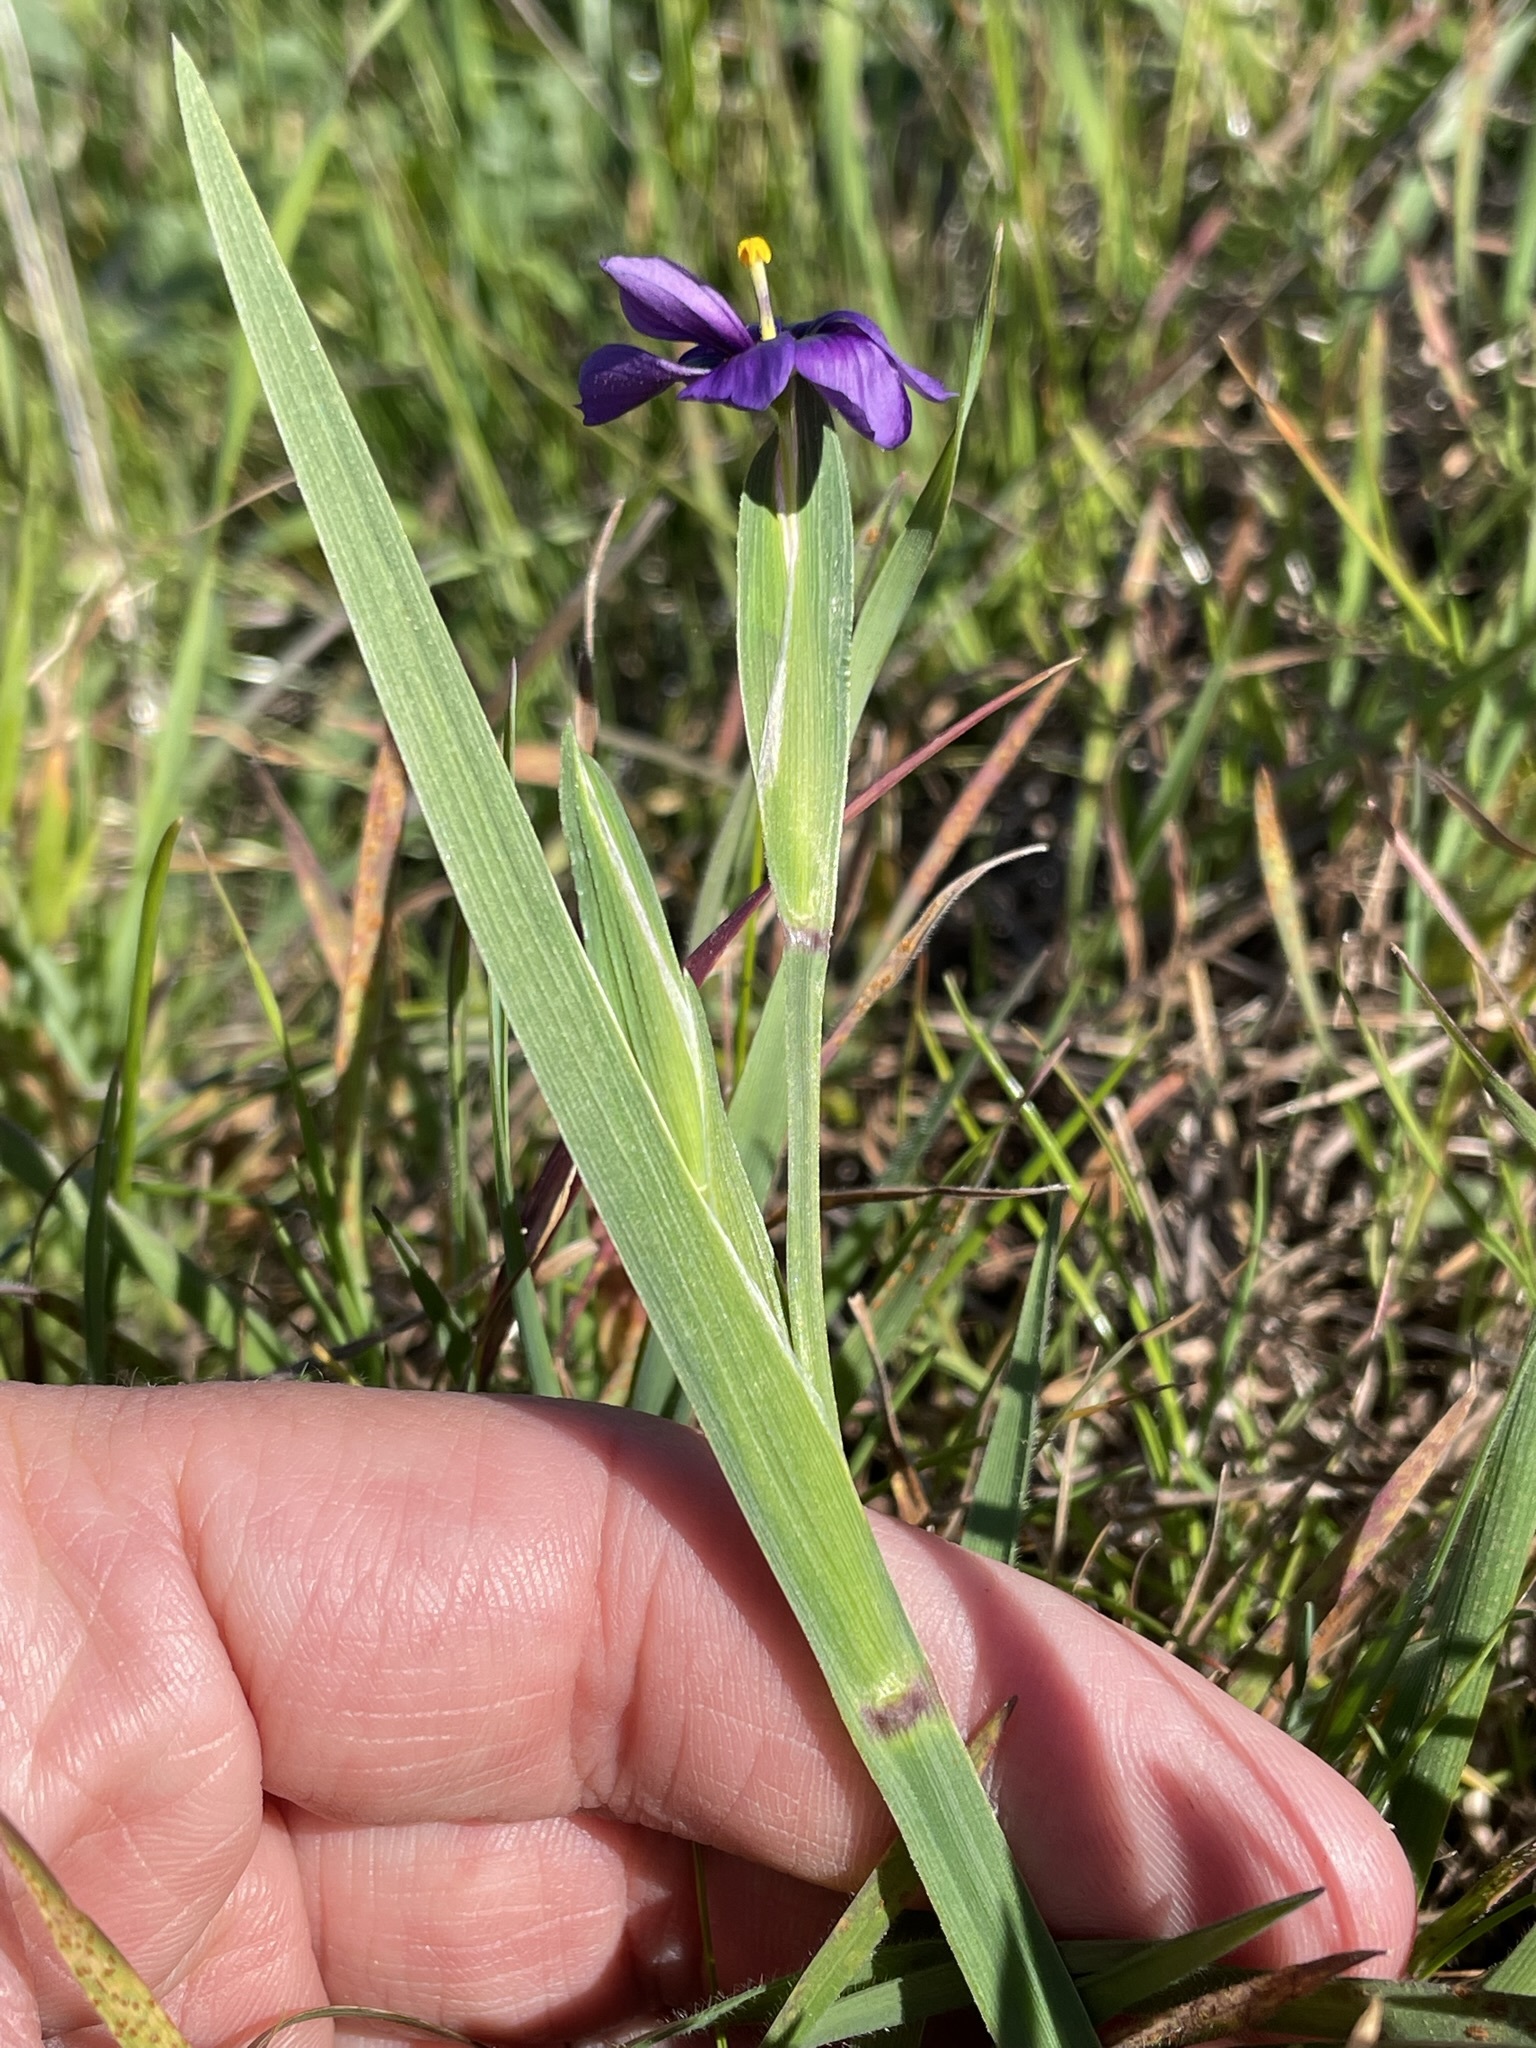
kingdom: Plantae
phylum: Tracheophyta
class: Liliopsida
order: Asparagales
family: Iridaceae
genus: Sisyrinchium
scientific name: Sisyrinchium bellum
